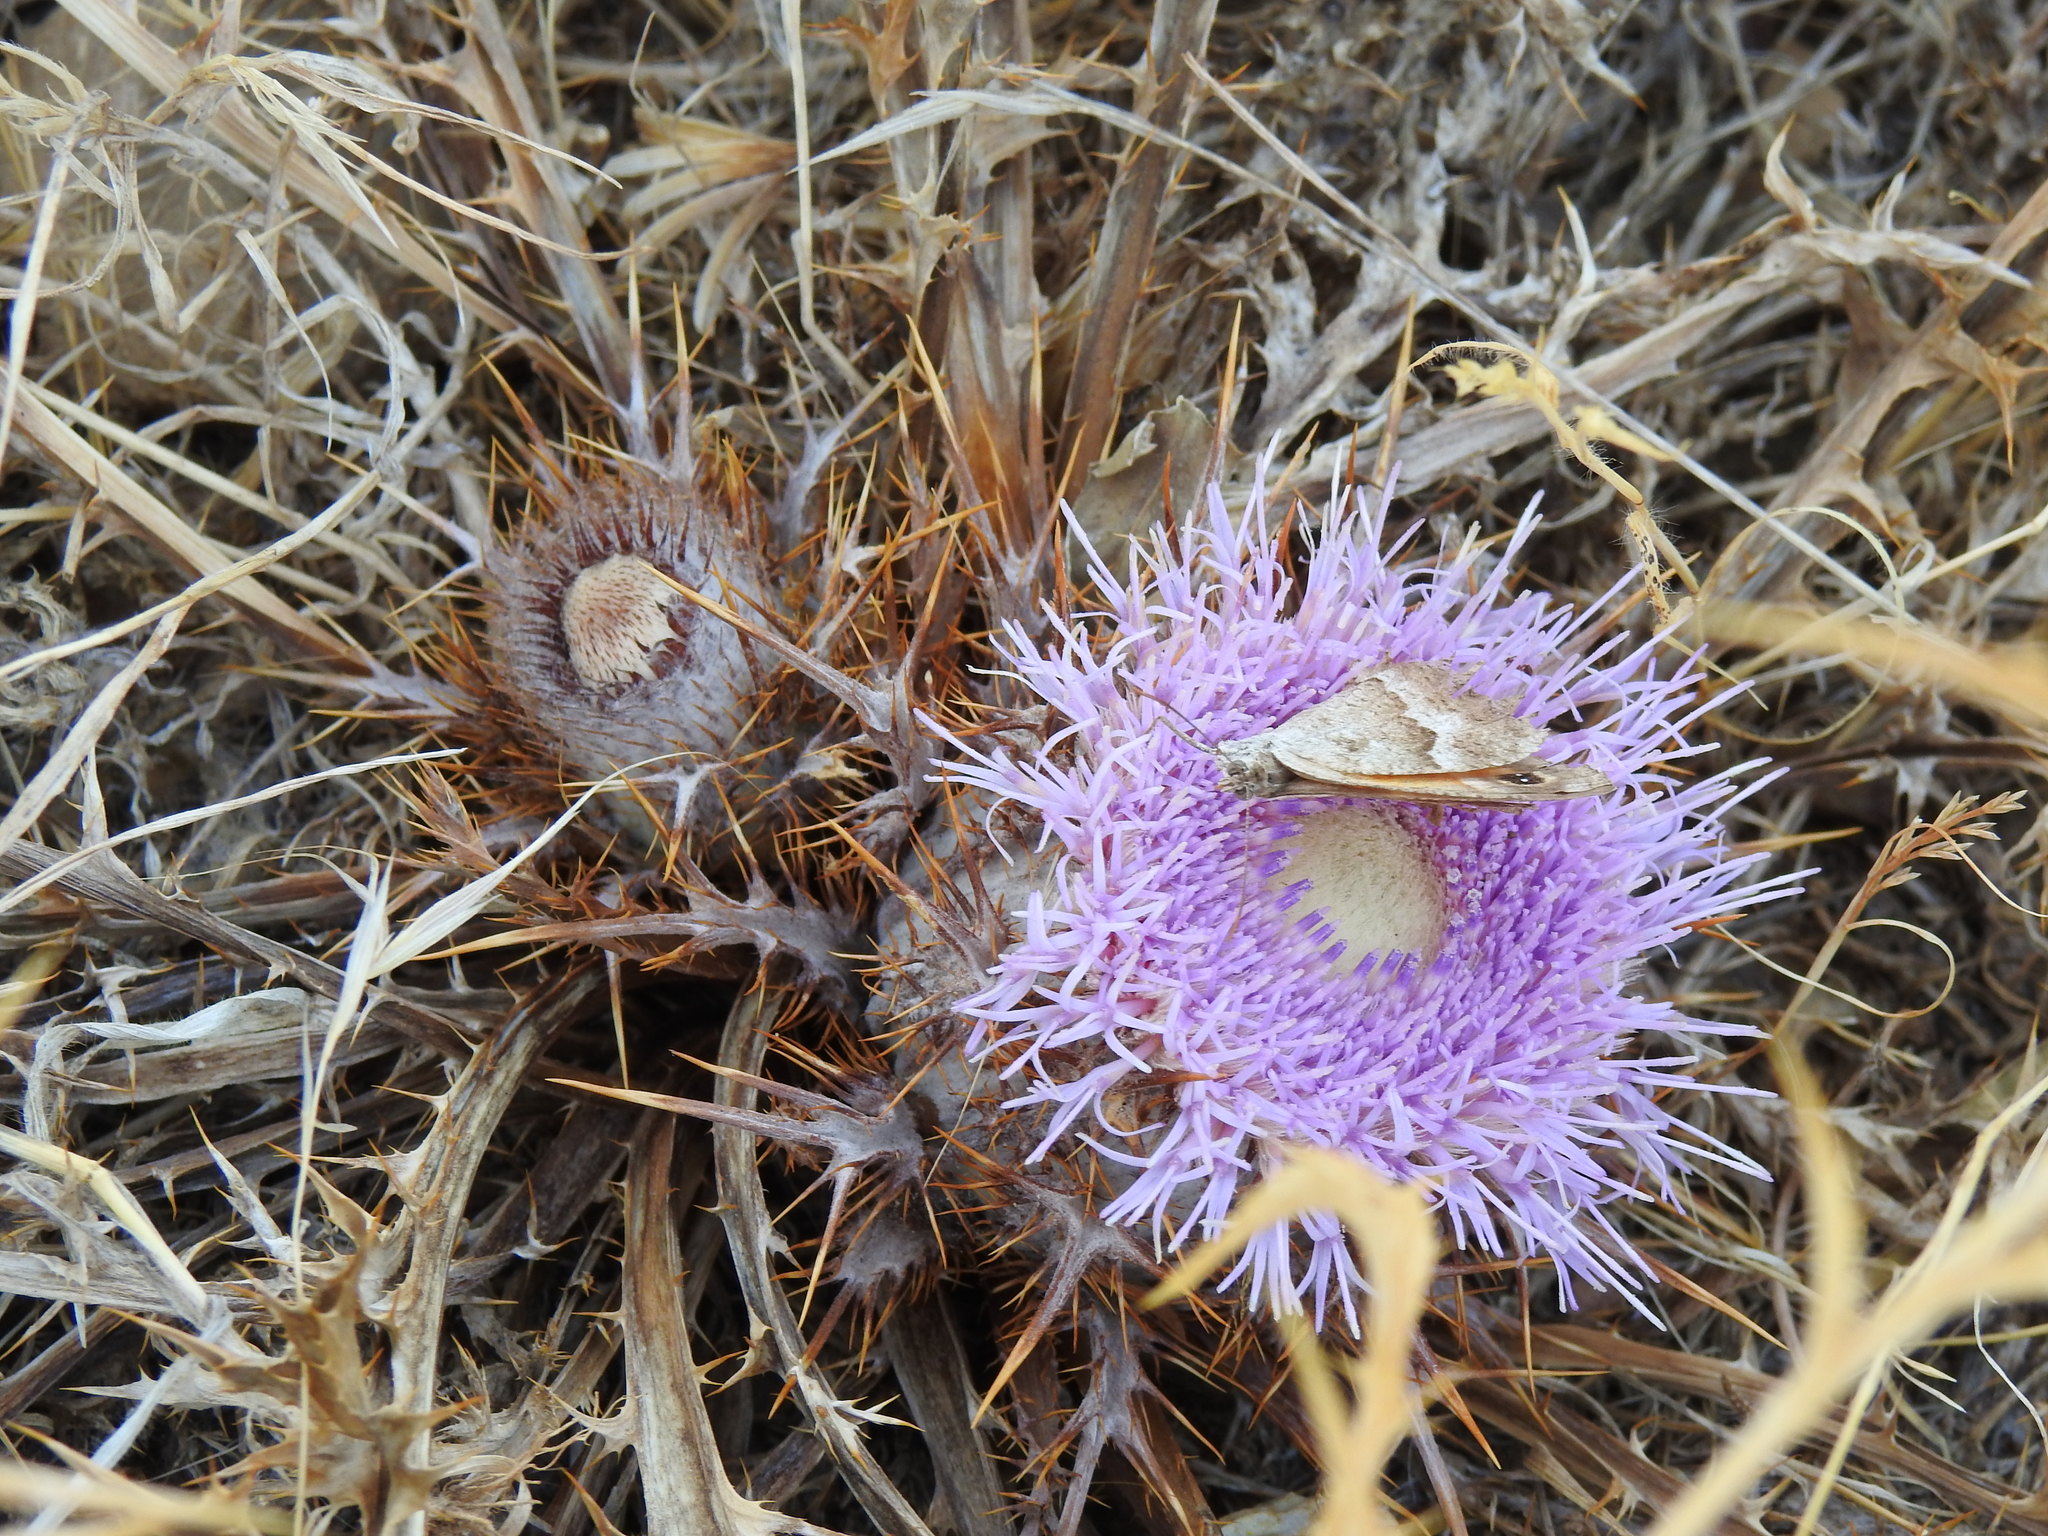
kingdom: Plantae
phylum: Tracheophyta
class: Magnoliopsida
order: Asterales
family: Asteraceae
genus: Chamaeleon
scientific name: Chamaeleon gummifer
